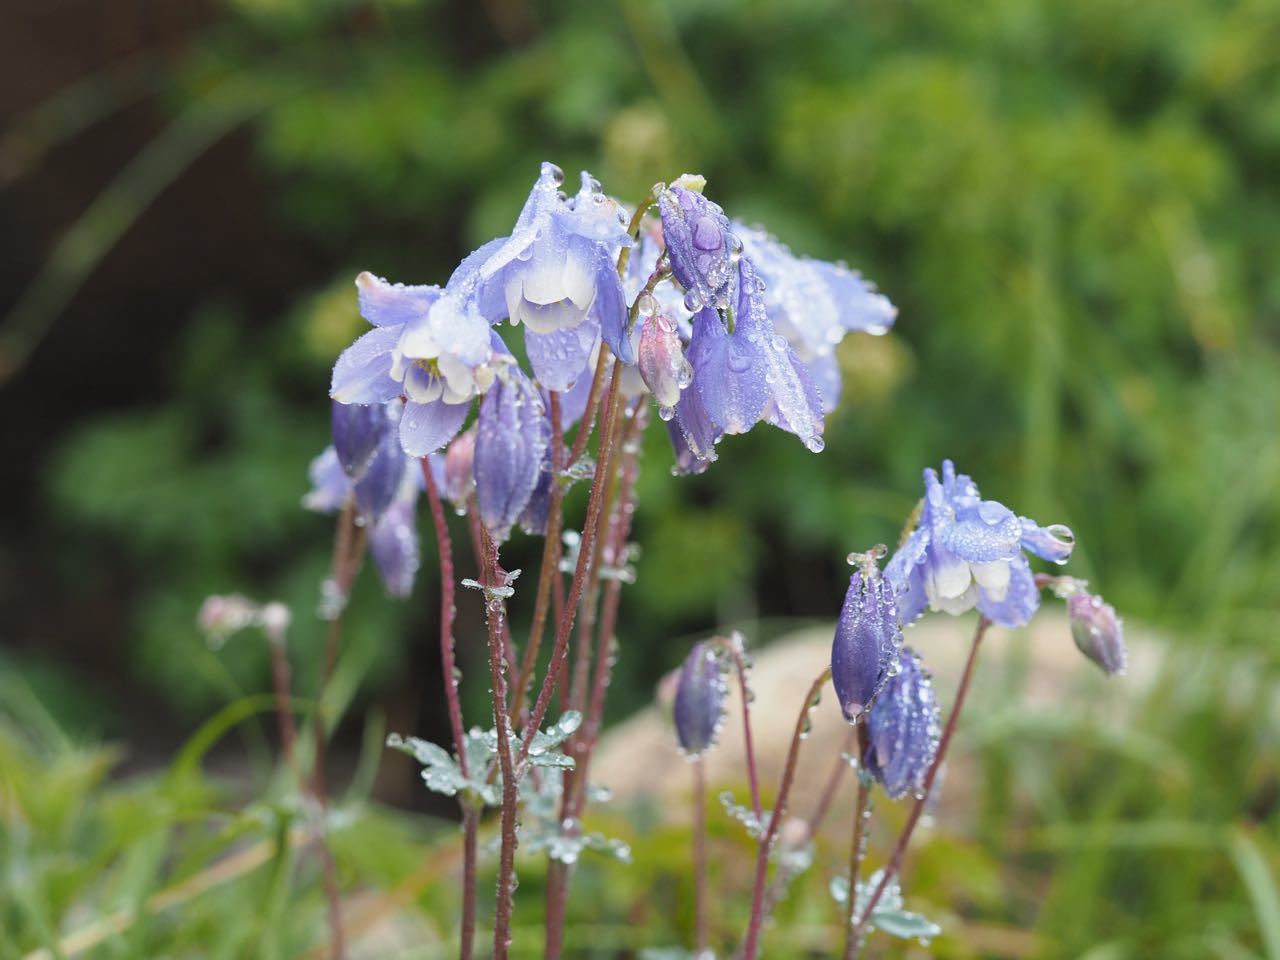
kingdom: Plantae
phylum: Tracheophyta
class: Magnoliopsida
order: Ranunculales
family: Ranunculaceae
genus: Aquilegia
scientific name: Aquilegia flabellata
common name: Fan columbine
